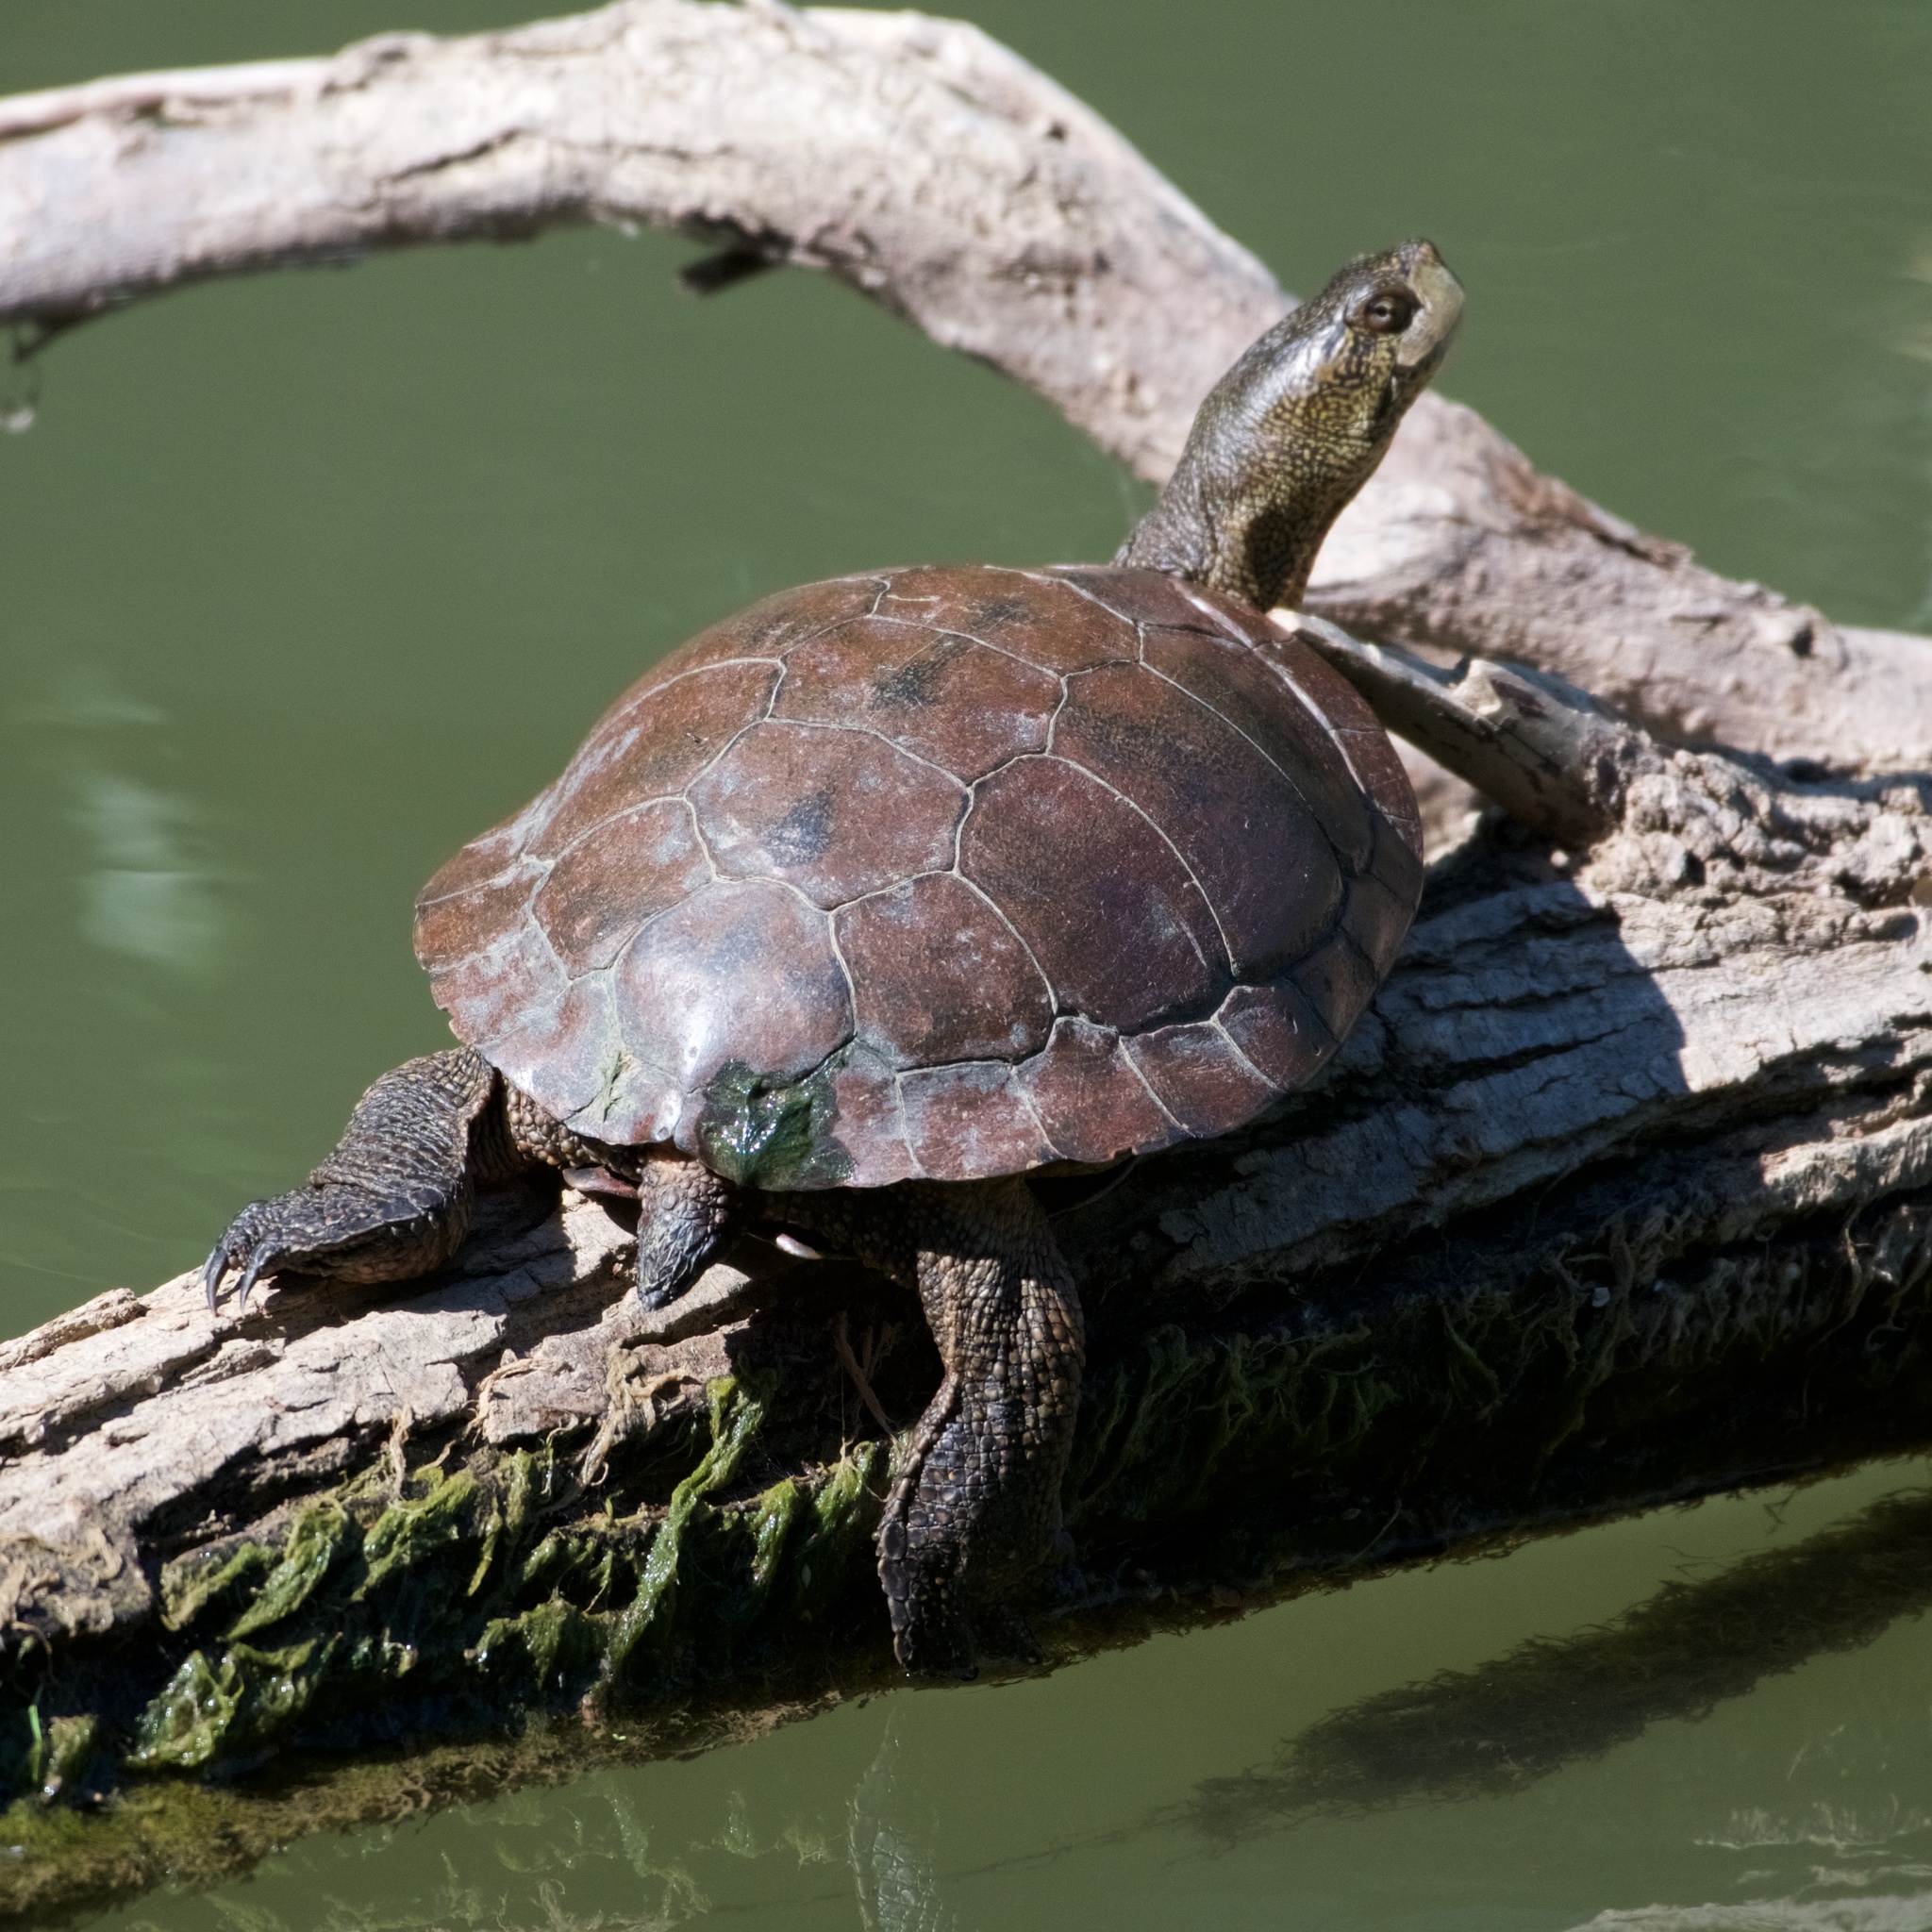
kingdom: Animalia
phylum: Chordata
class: Testudines
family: Emydidae
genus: Actinemys
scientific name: Actinemys marmorata
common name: Western pond turtle
